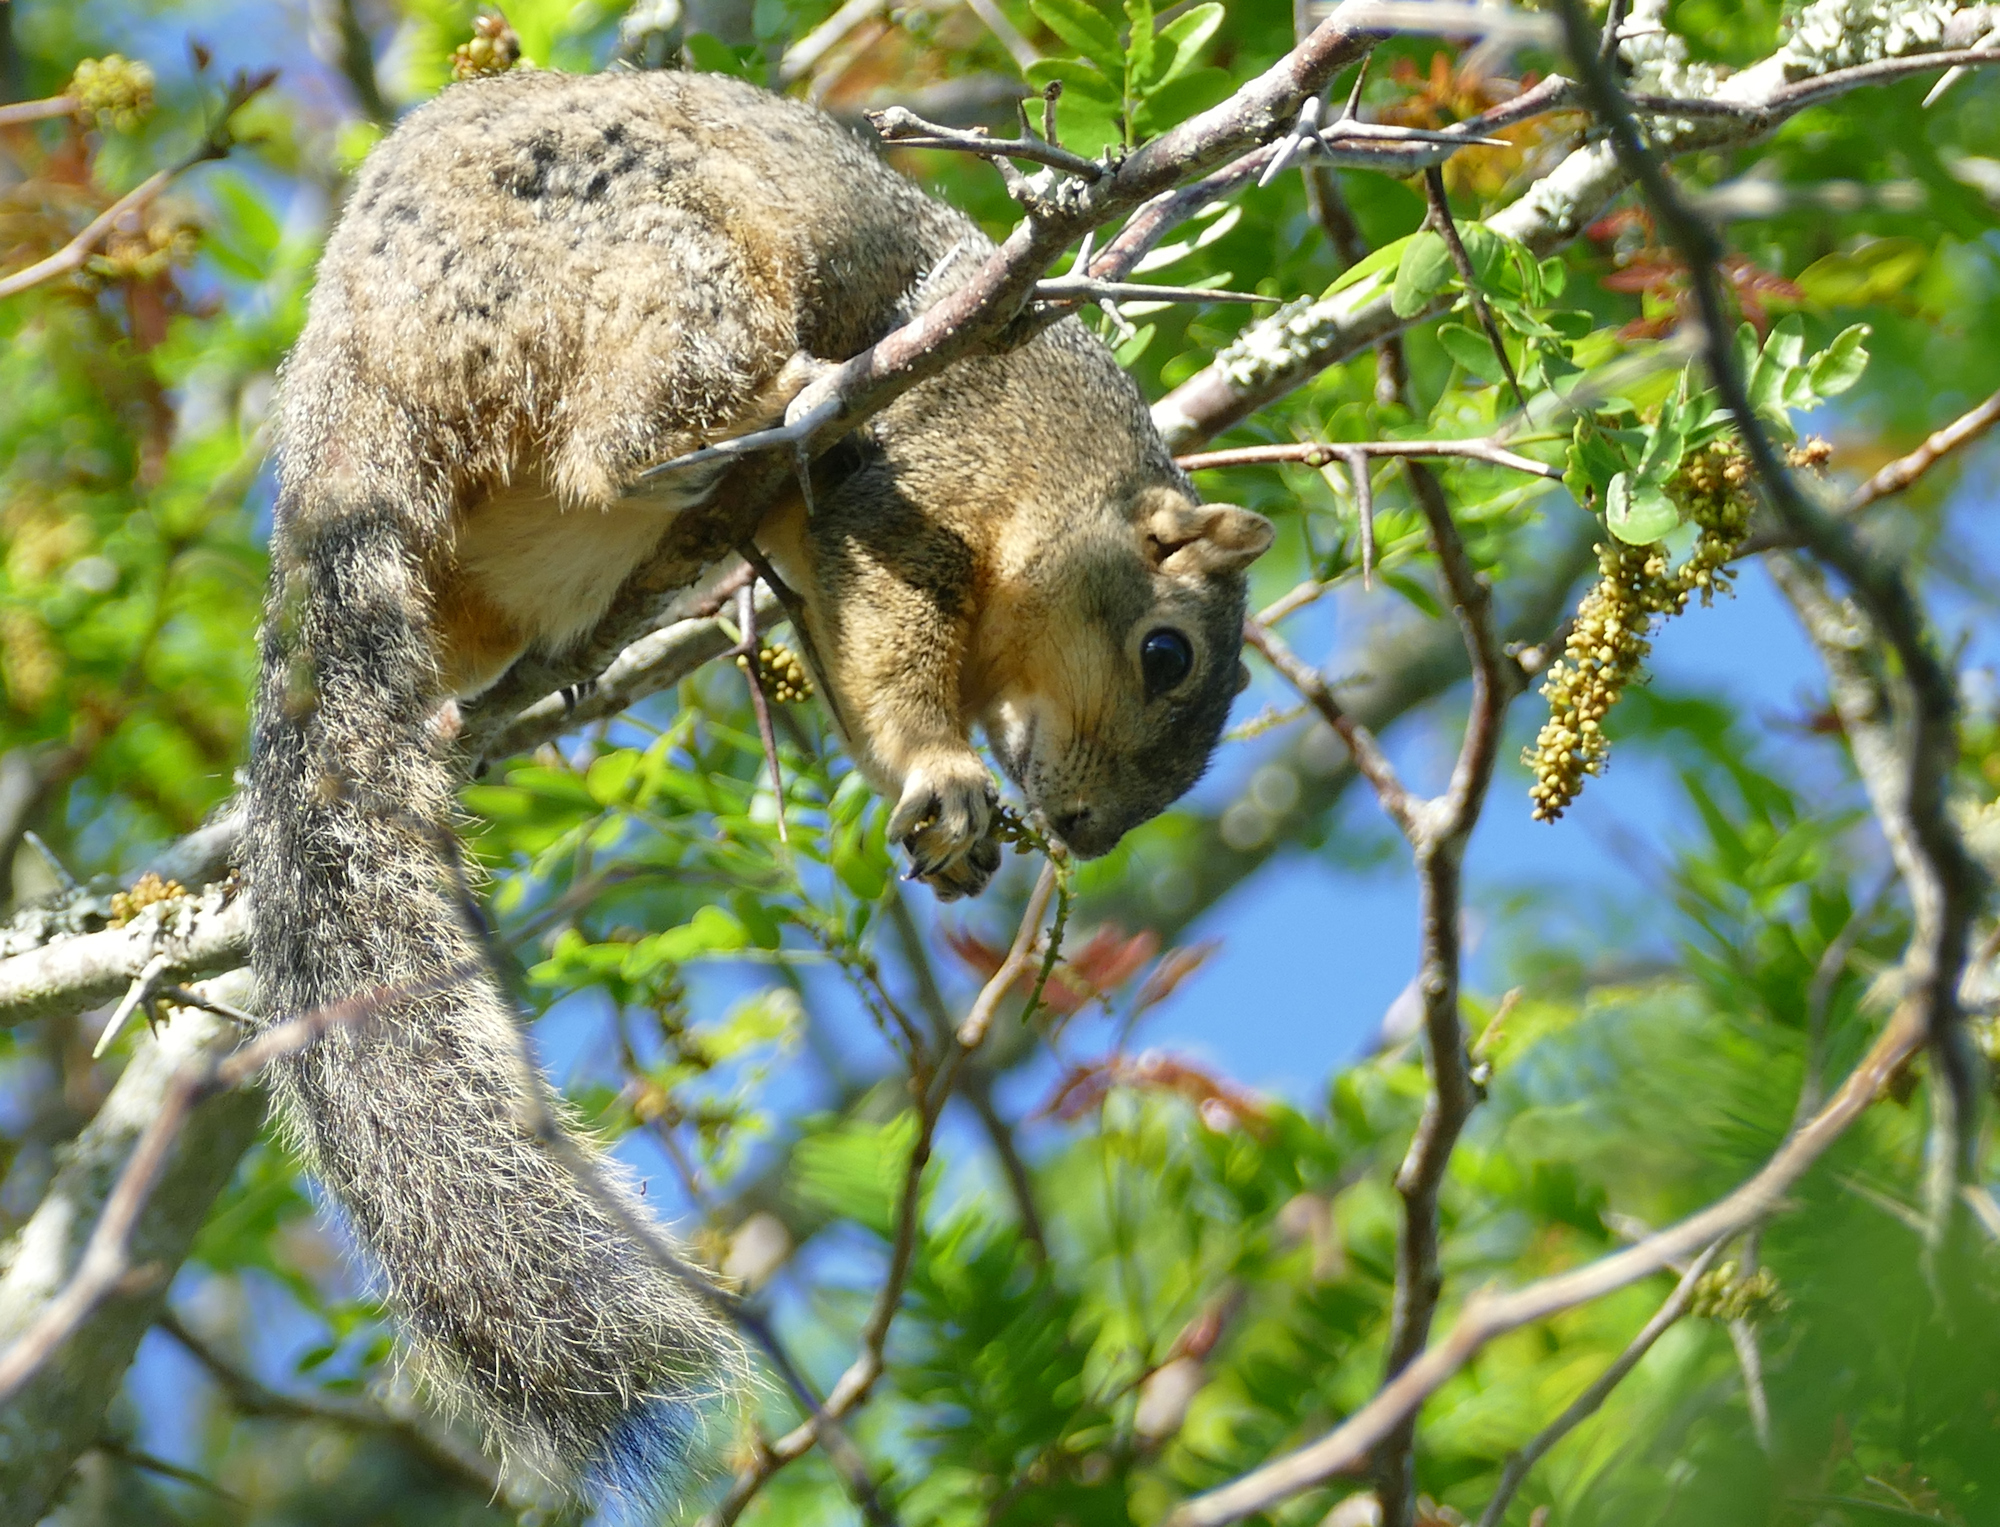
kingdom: Animalia
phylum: Chordata
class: Mammalia
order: Rodentia
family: Sciuridae
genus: Sciurus
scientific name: Sciurus niger
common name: Fox squirrel
